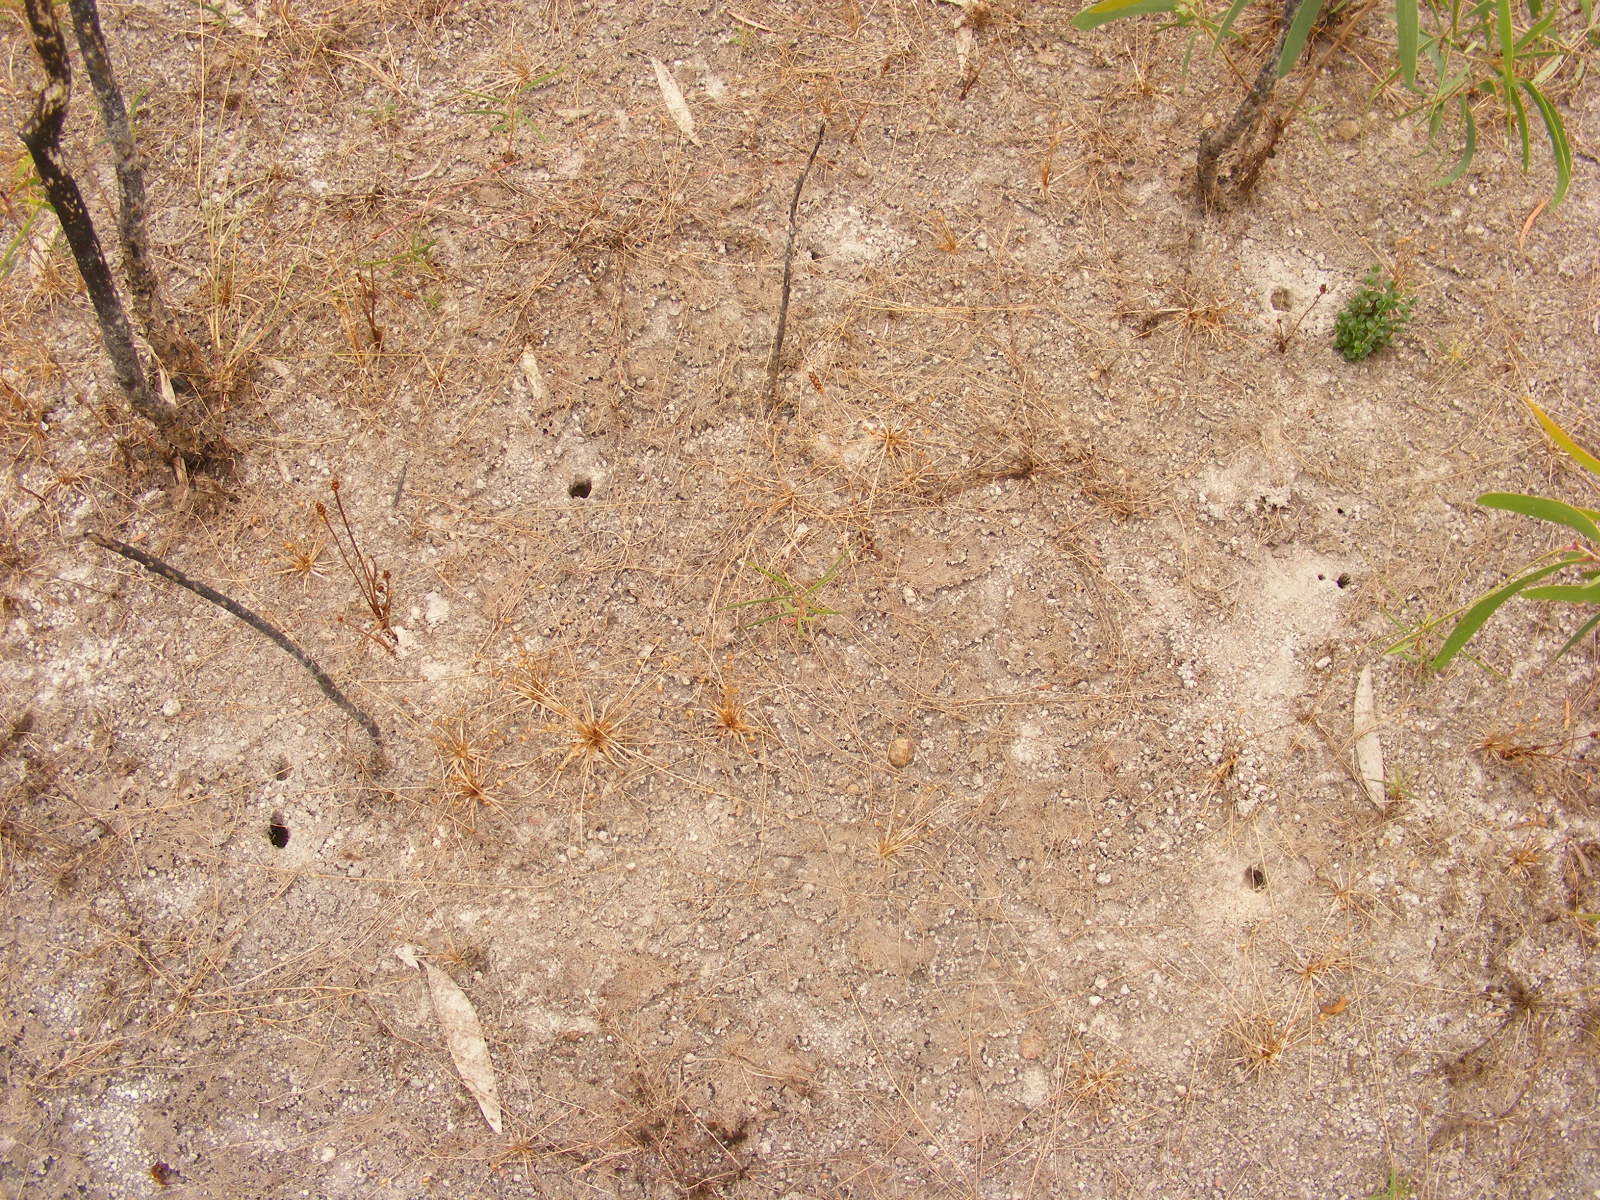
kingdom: Animalia
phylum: Arthropoda
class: Malacostraca
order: Decapoda
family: Gecarcinucidae
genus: Austrothelphusa
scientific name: Austrothelphusa raceki
